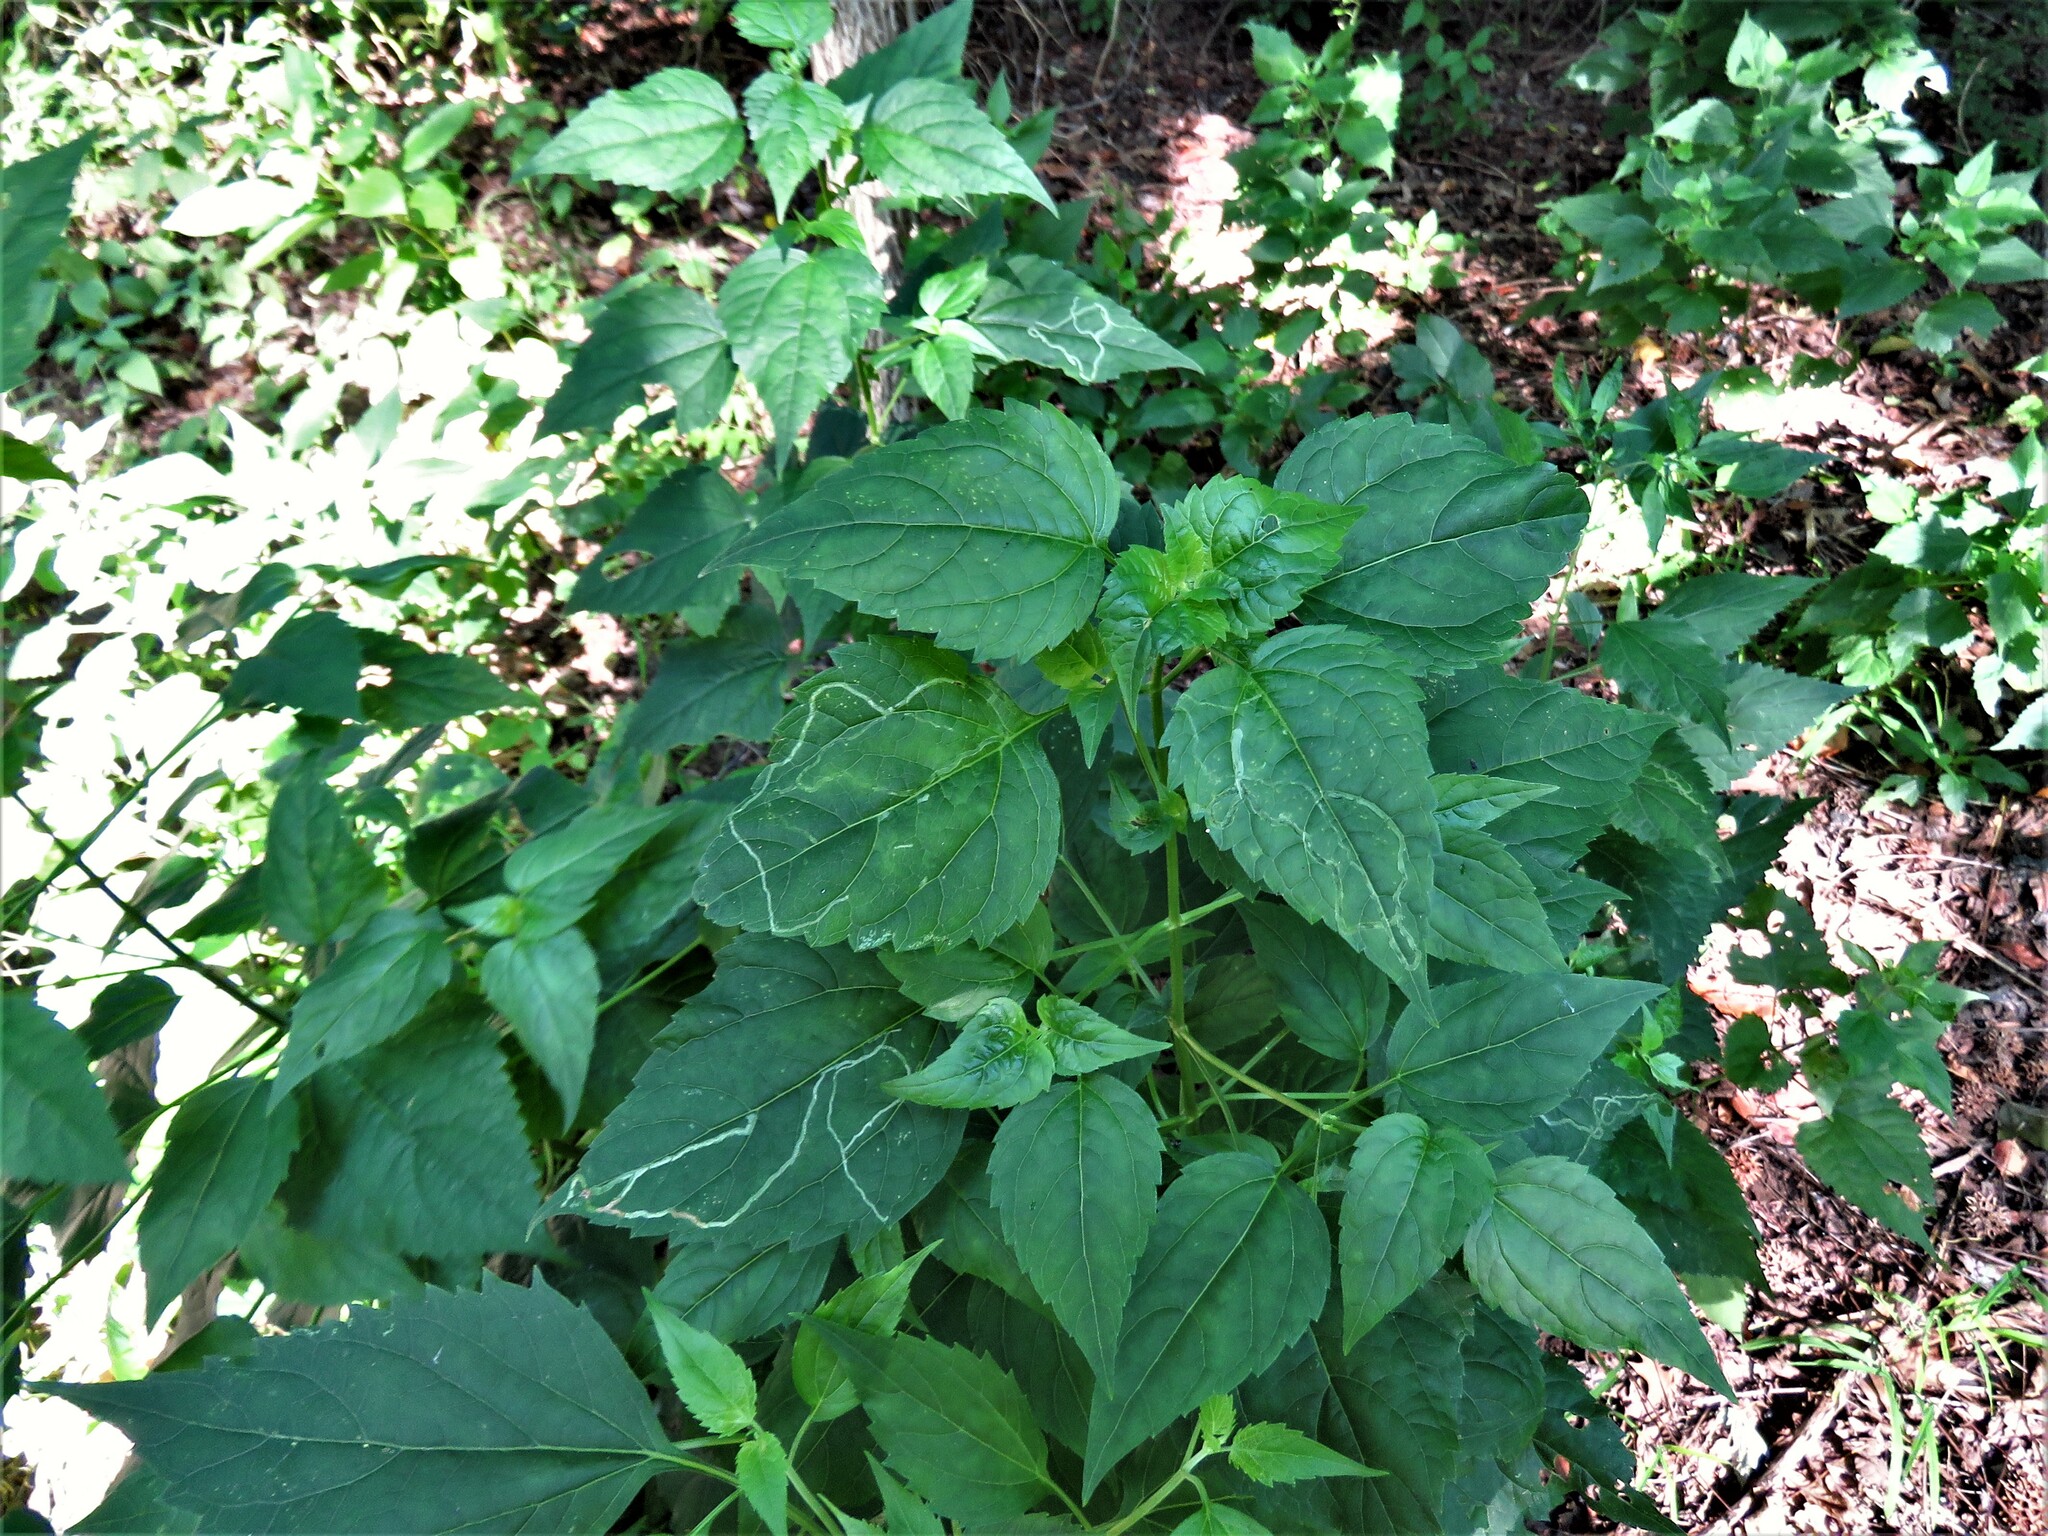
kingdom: Plantae
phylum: Tracheophyta
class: Magnoliopsida
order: Asterales
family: Asteraceae
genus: Ageratina
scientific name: Ageratina altissima
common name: White snakeroot
